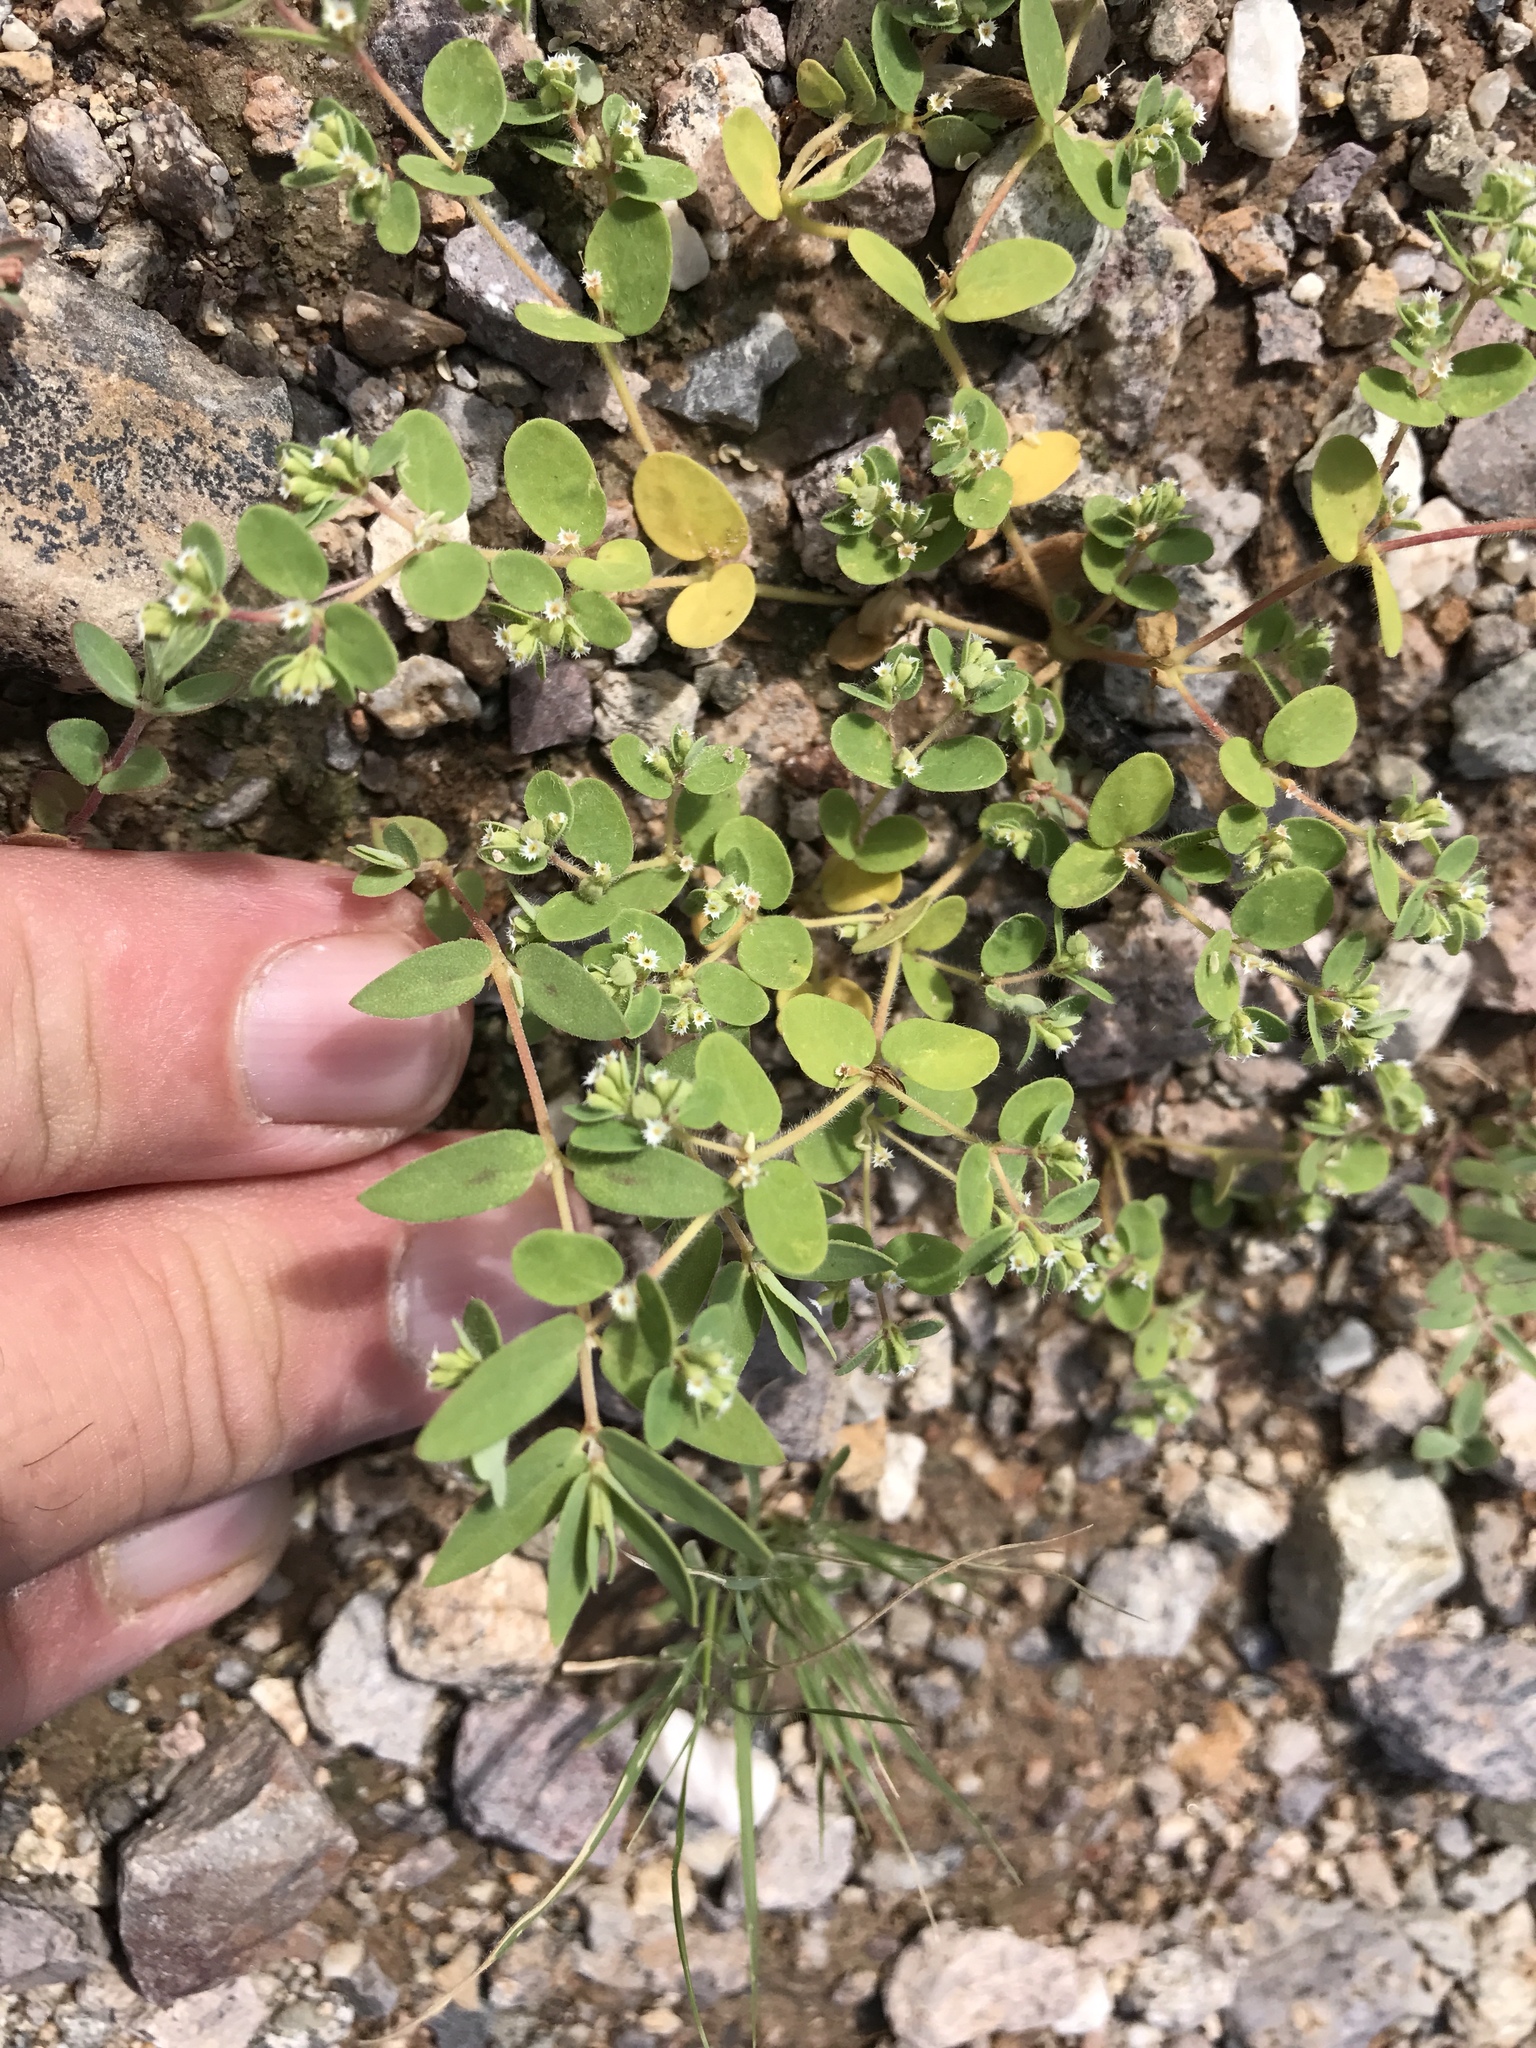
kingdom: Plantae
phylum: Tracheophyta
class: Magnoliopsida
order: Malpighiales
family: Euphorbiaceae
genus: Euphorbia
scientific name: Euphorbia setiloba
